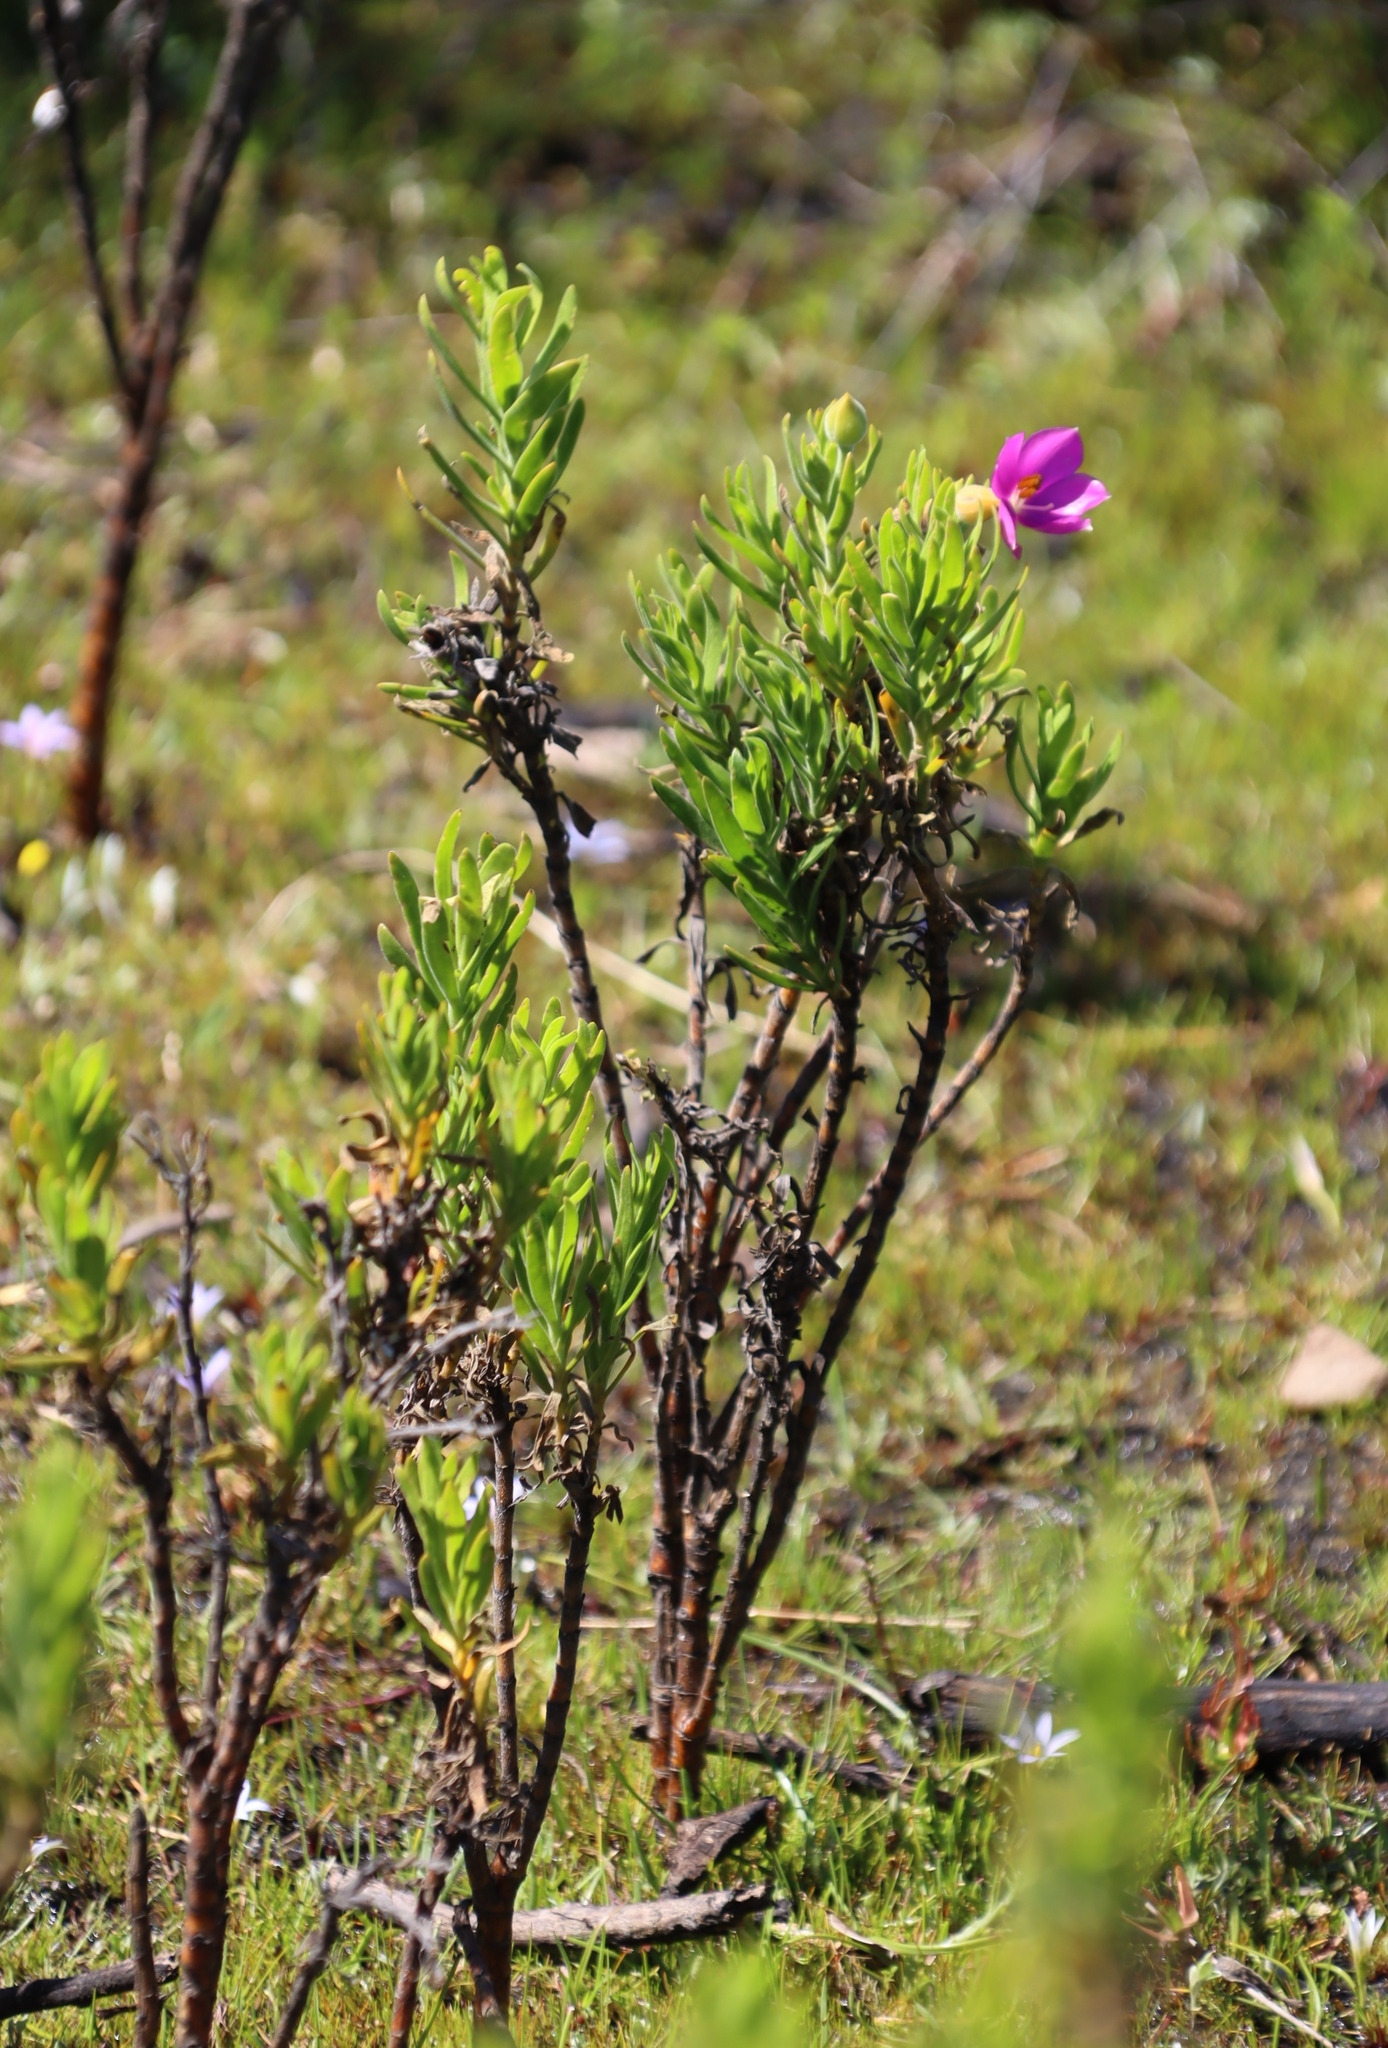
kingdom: Plantae
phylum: Tracheophyta
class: Magnoliopsida
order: Gentianales
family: Gentianaceae
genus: Orphium
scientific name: Orphium frutescens
